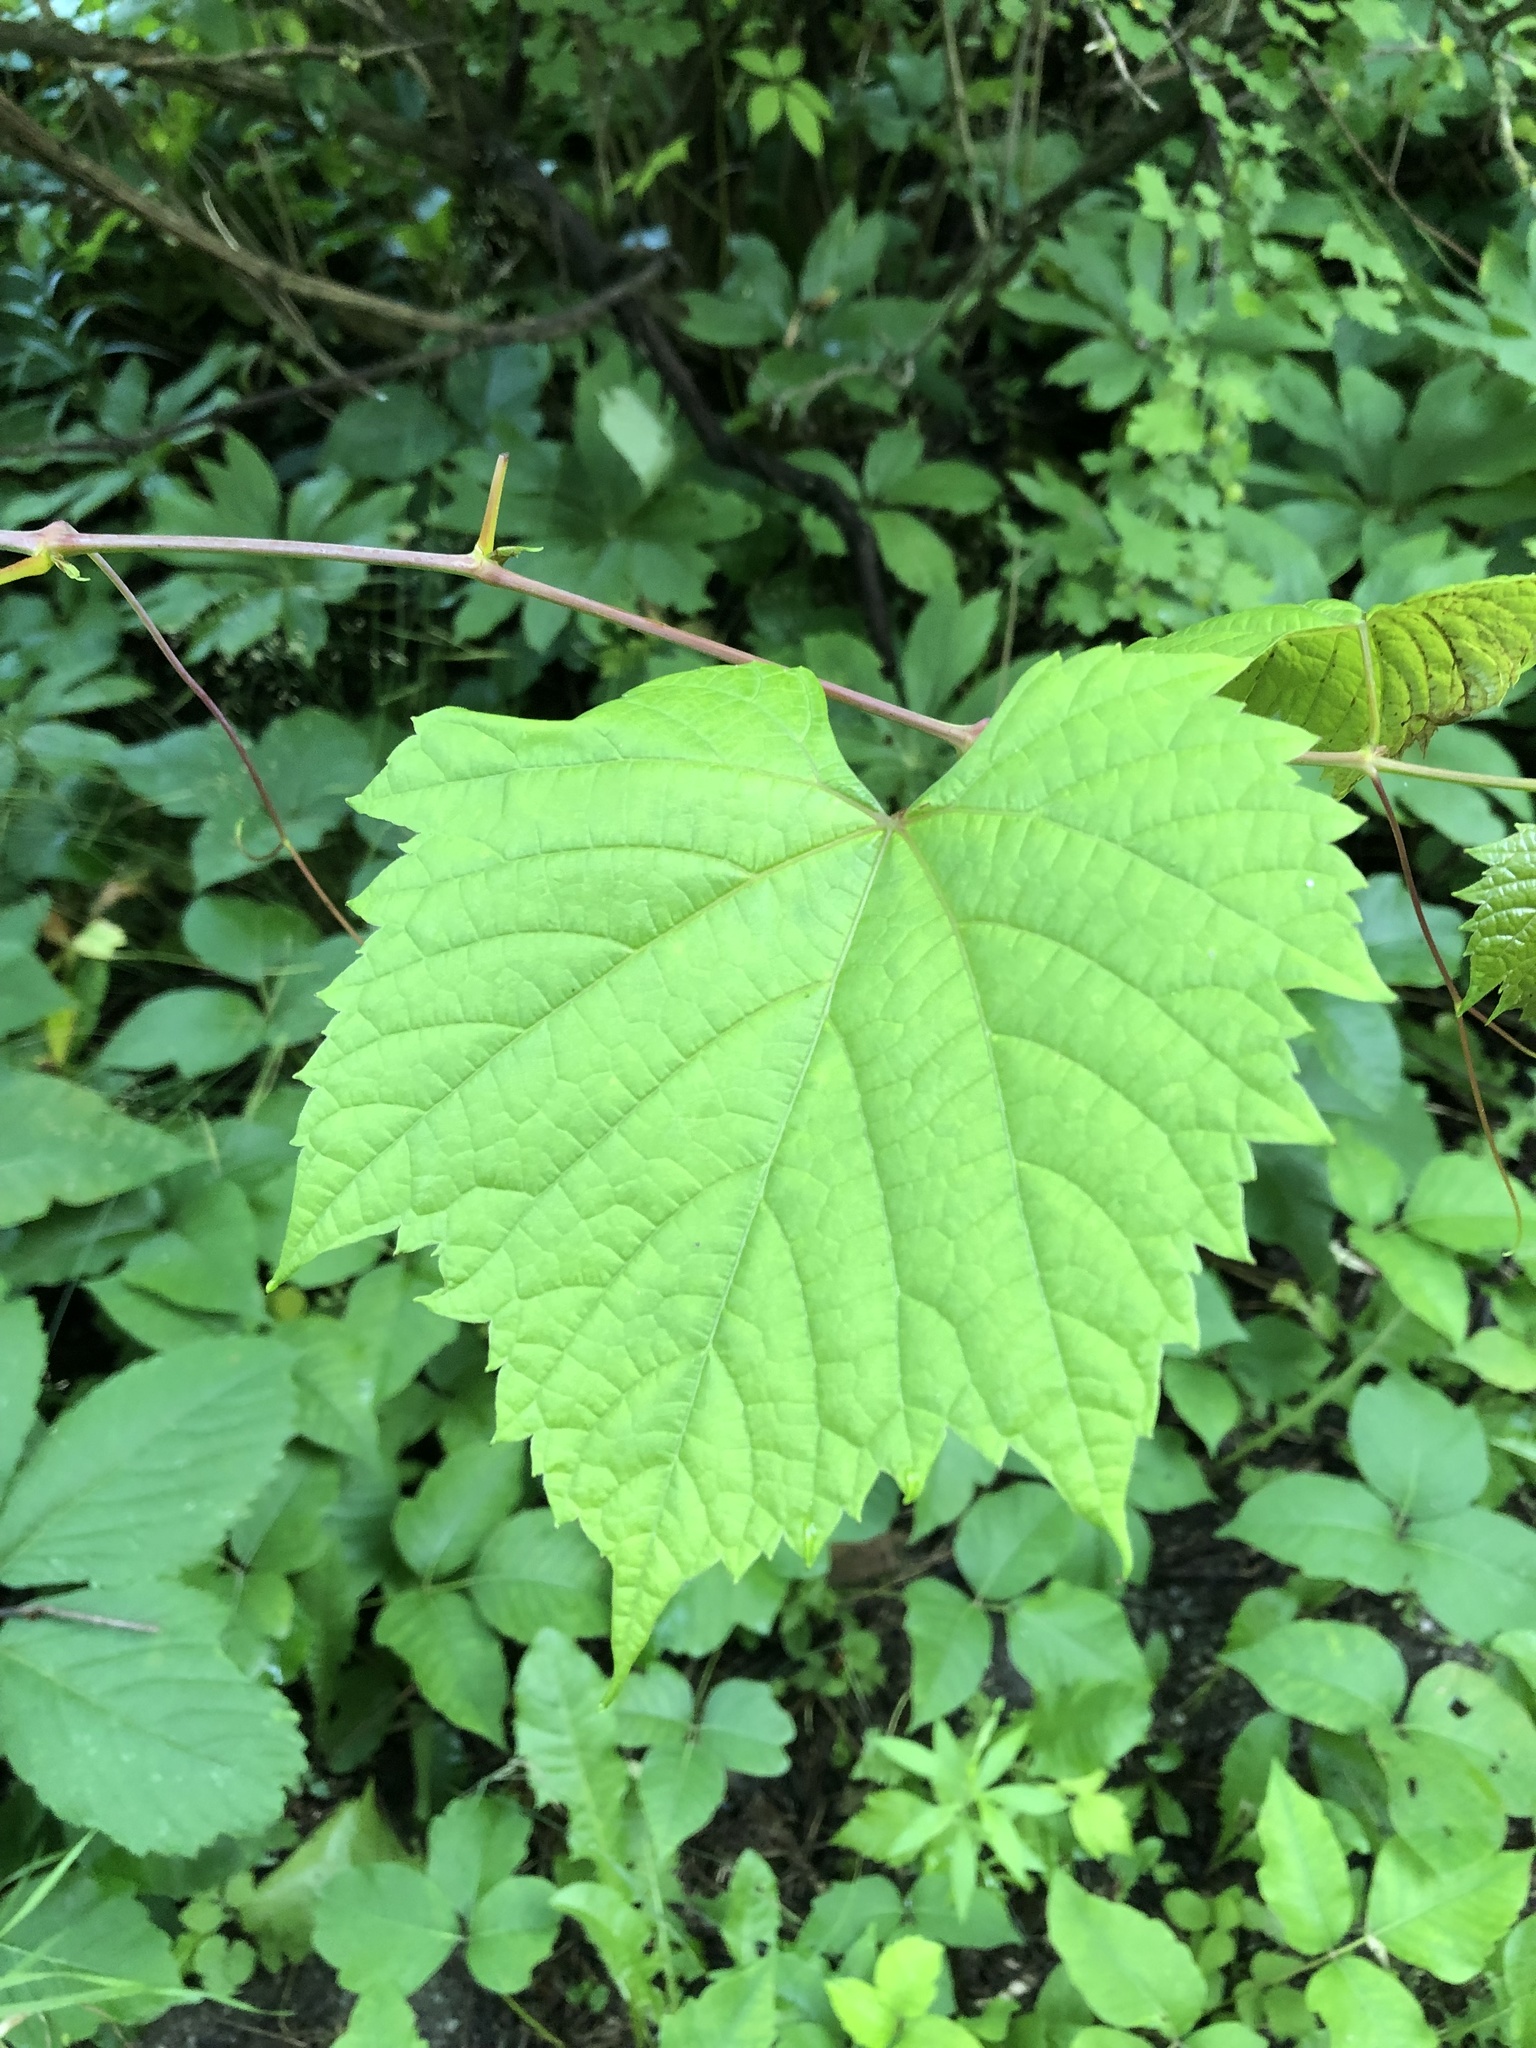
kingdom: Plantae
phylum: Tracheophyta
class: Magnoliopsida
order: Vitales
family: Vitaceae
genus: Vitis
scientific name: Vitis riparia
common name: Frost grape
